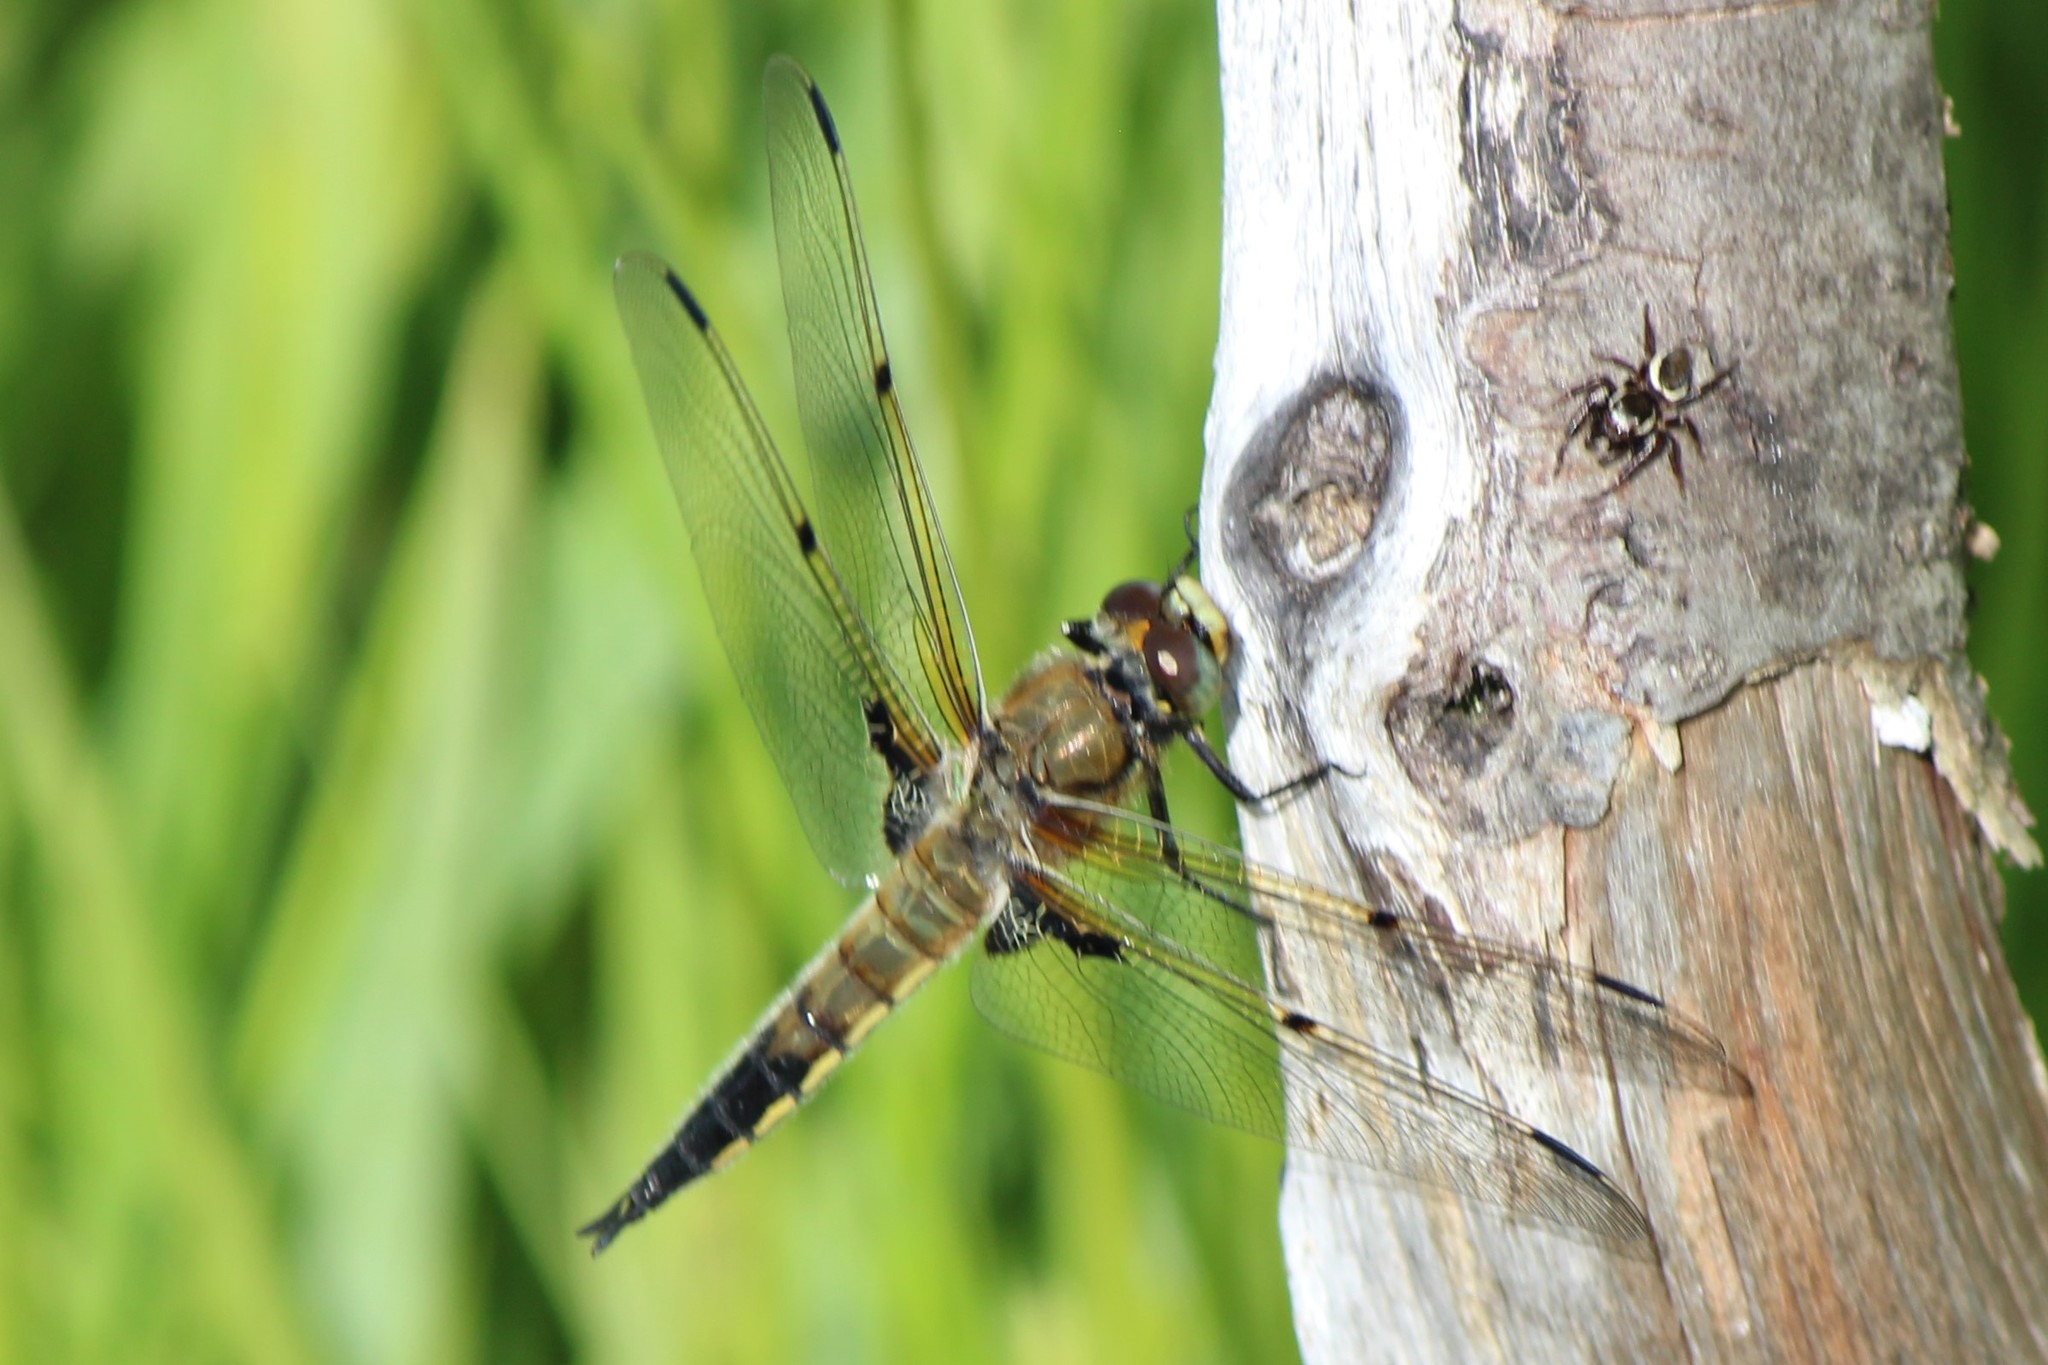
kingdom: Animalia
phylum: Arthropoda
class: Insecta
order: Odonata
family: Libellulidae
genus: Libellula
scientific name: Libellula quadrimaculata
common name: Four-spotted chaser
